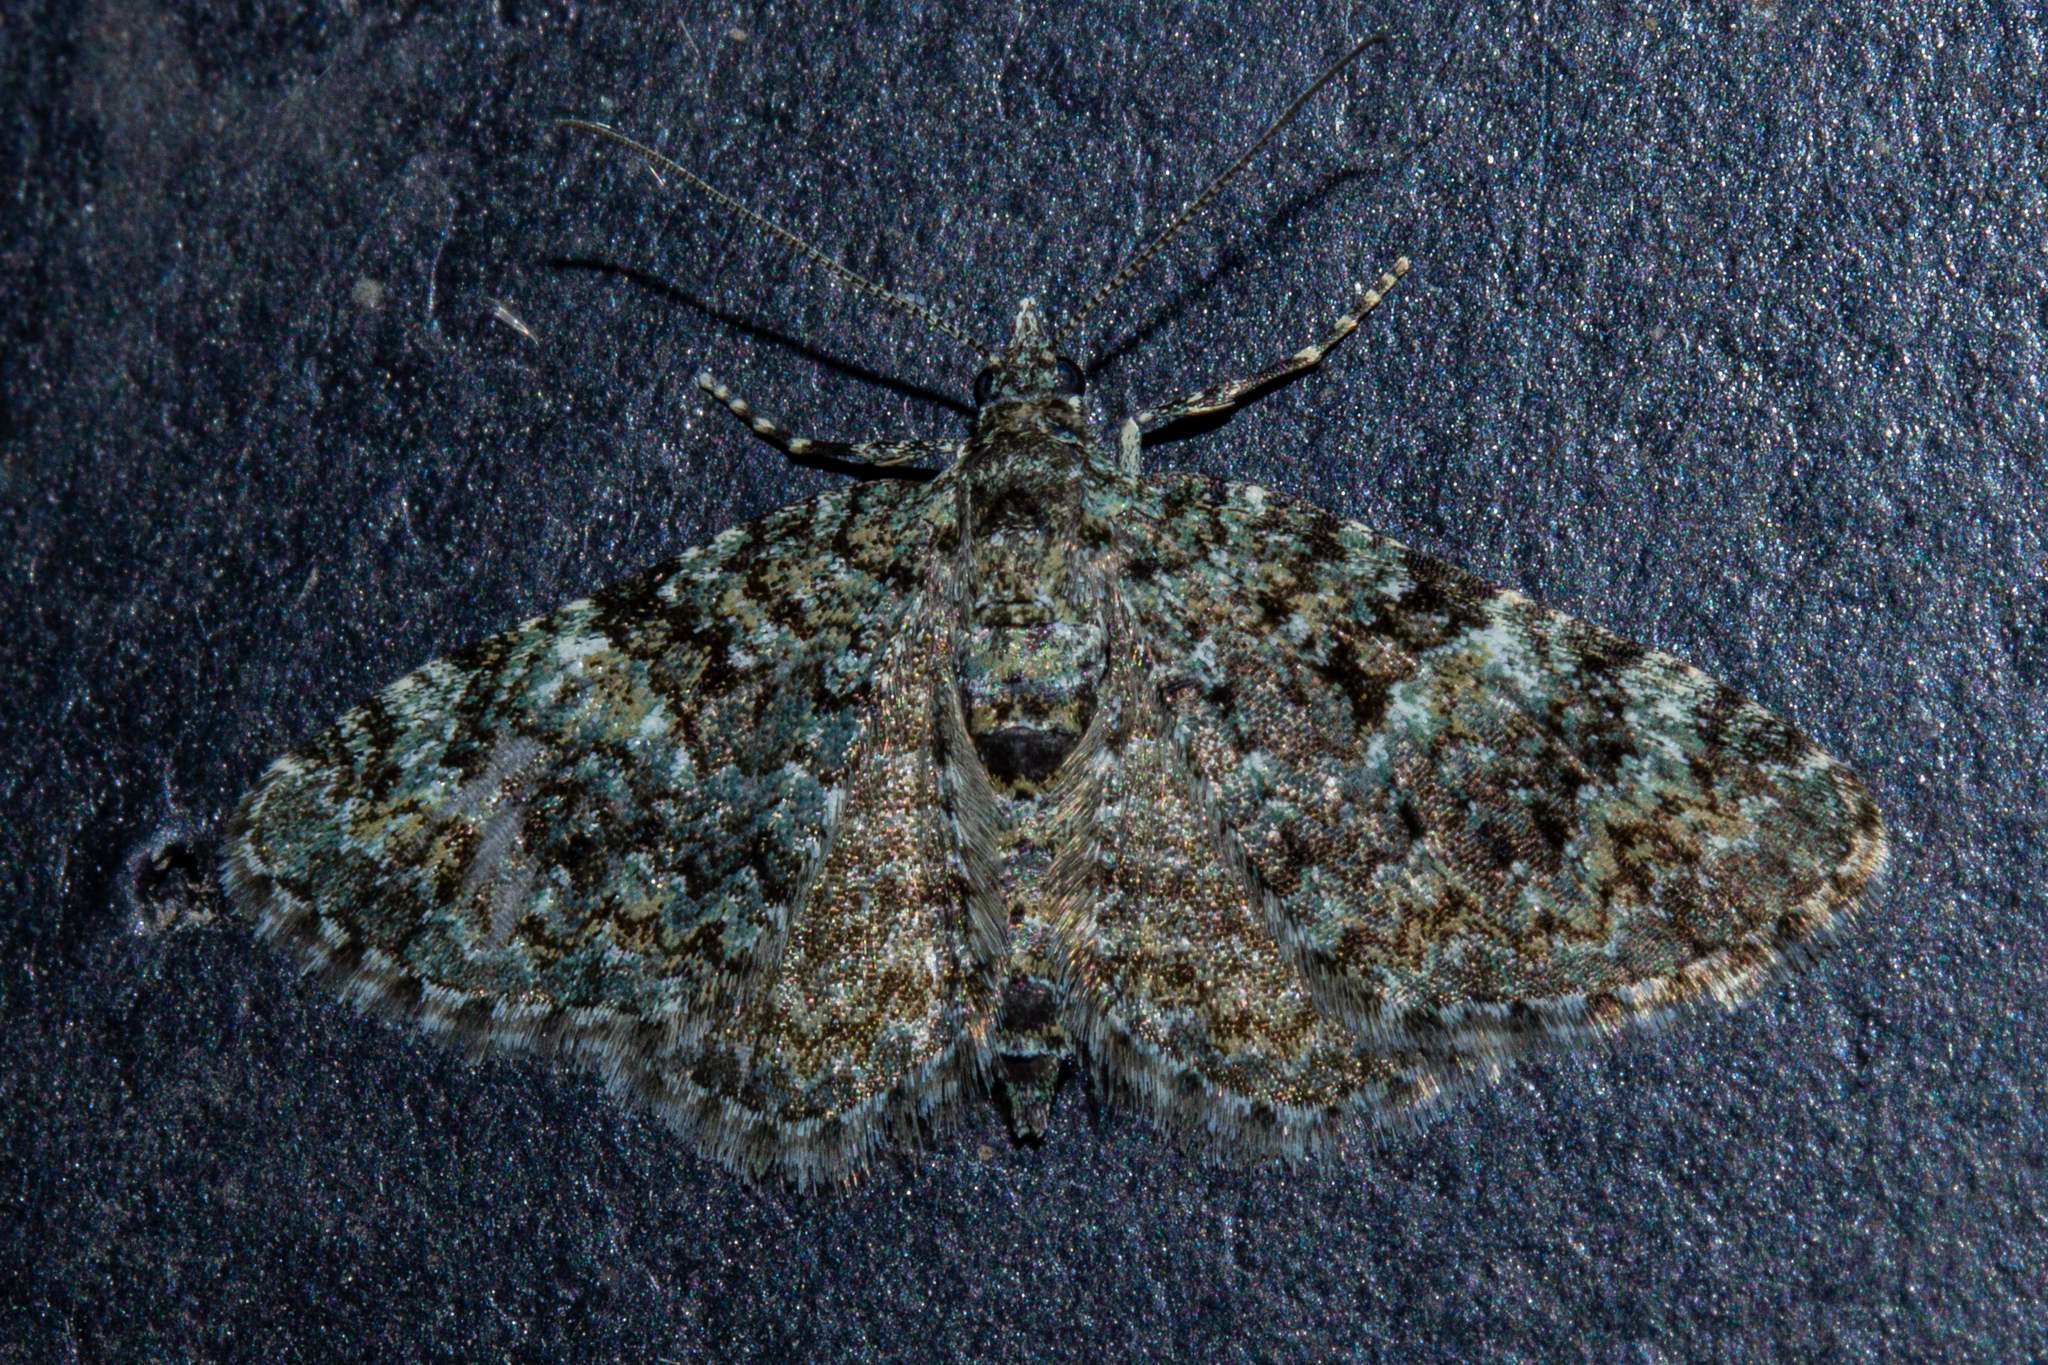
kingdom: Animalia
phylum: Arthropoda
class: Insecta
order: Lepidoptera
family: Geometridae
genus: Chloroclystis
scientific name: Chloroclystis nereis
